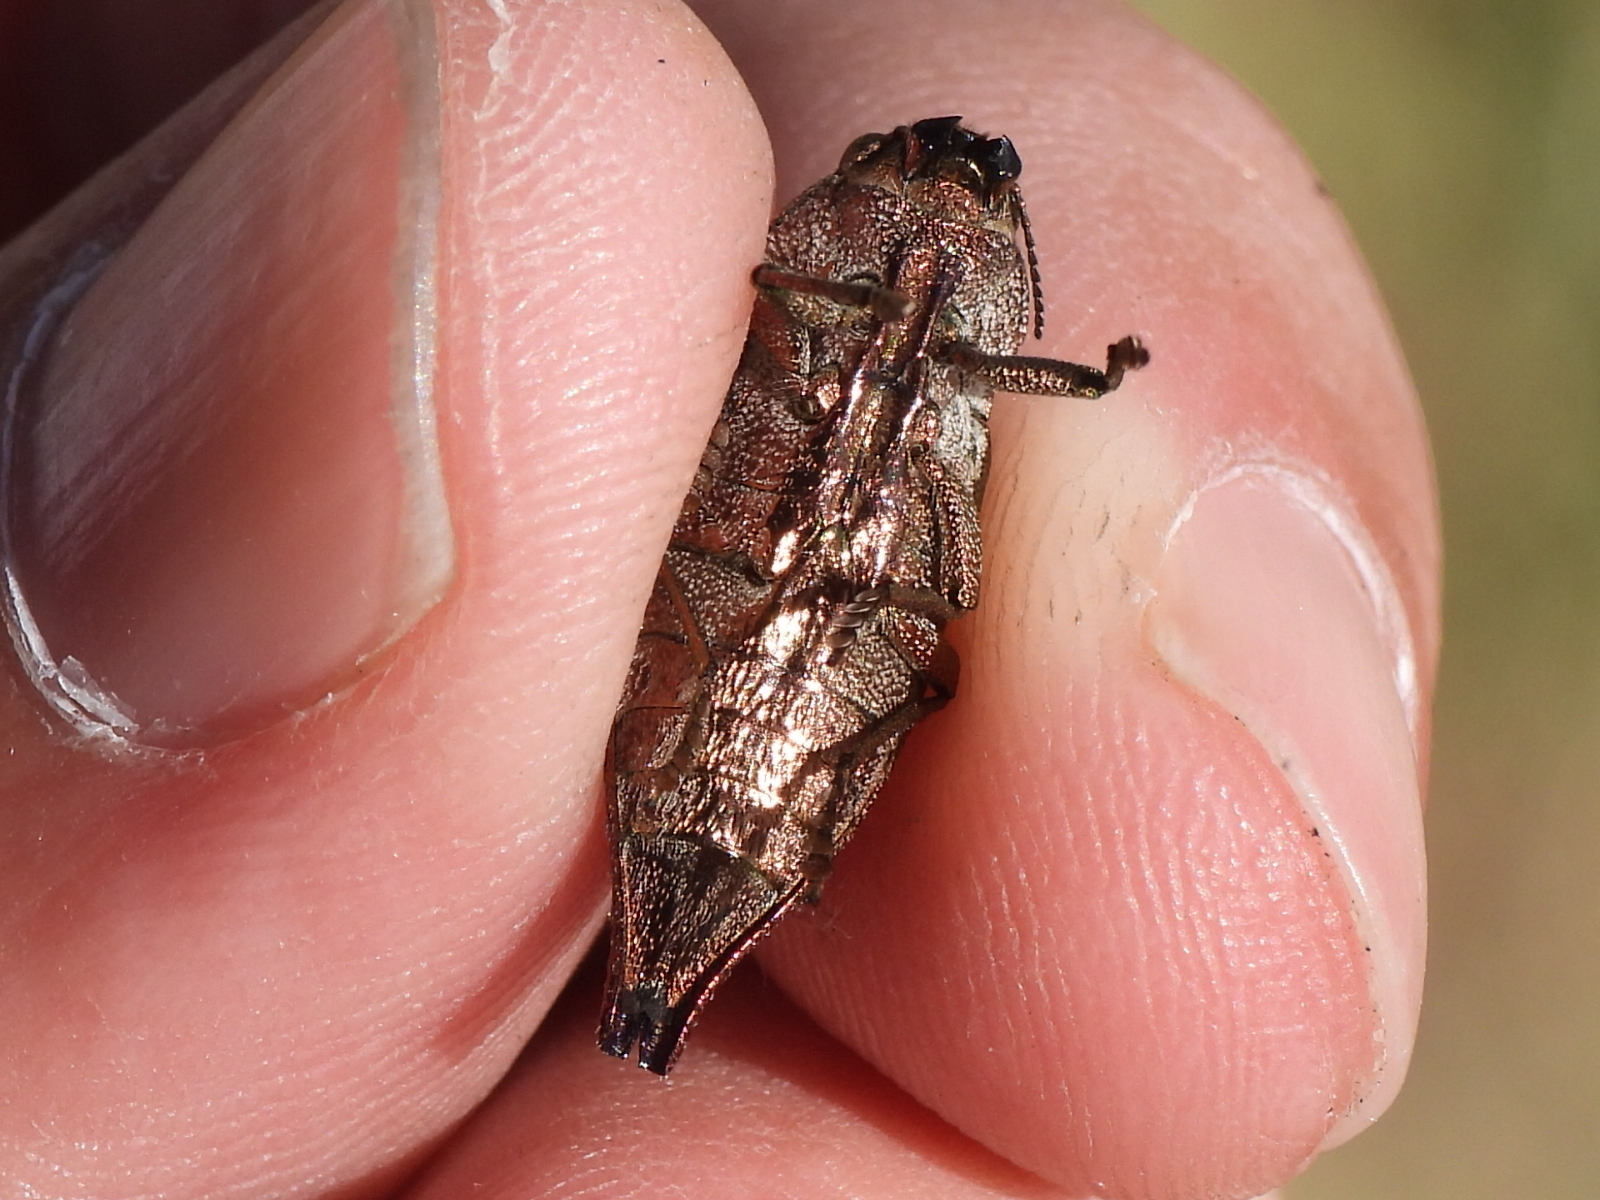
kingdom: Animalia
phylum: Arthropoda
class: Insecta
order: Coleoptera
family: Buprestidae
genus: Dicerca
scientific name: Dicerca divaricata
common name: Flat-headed hardwood borer
